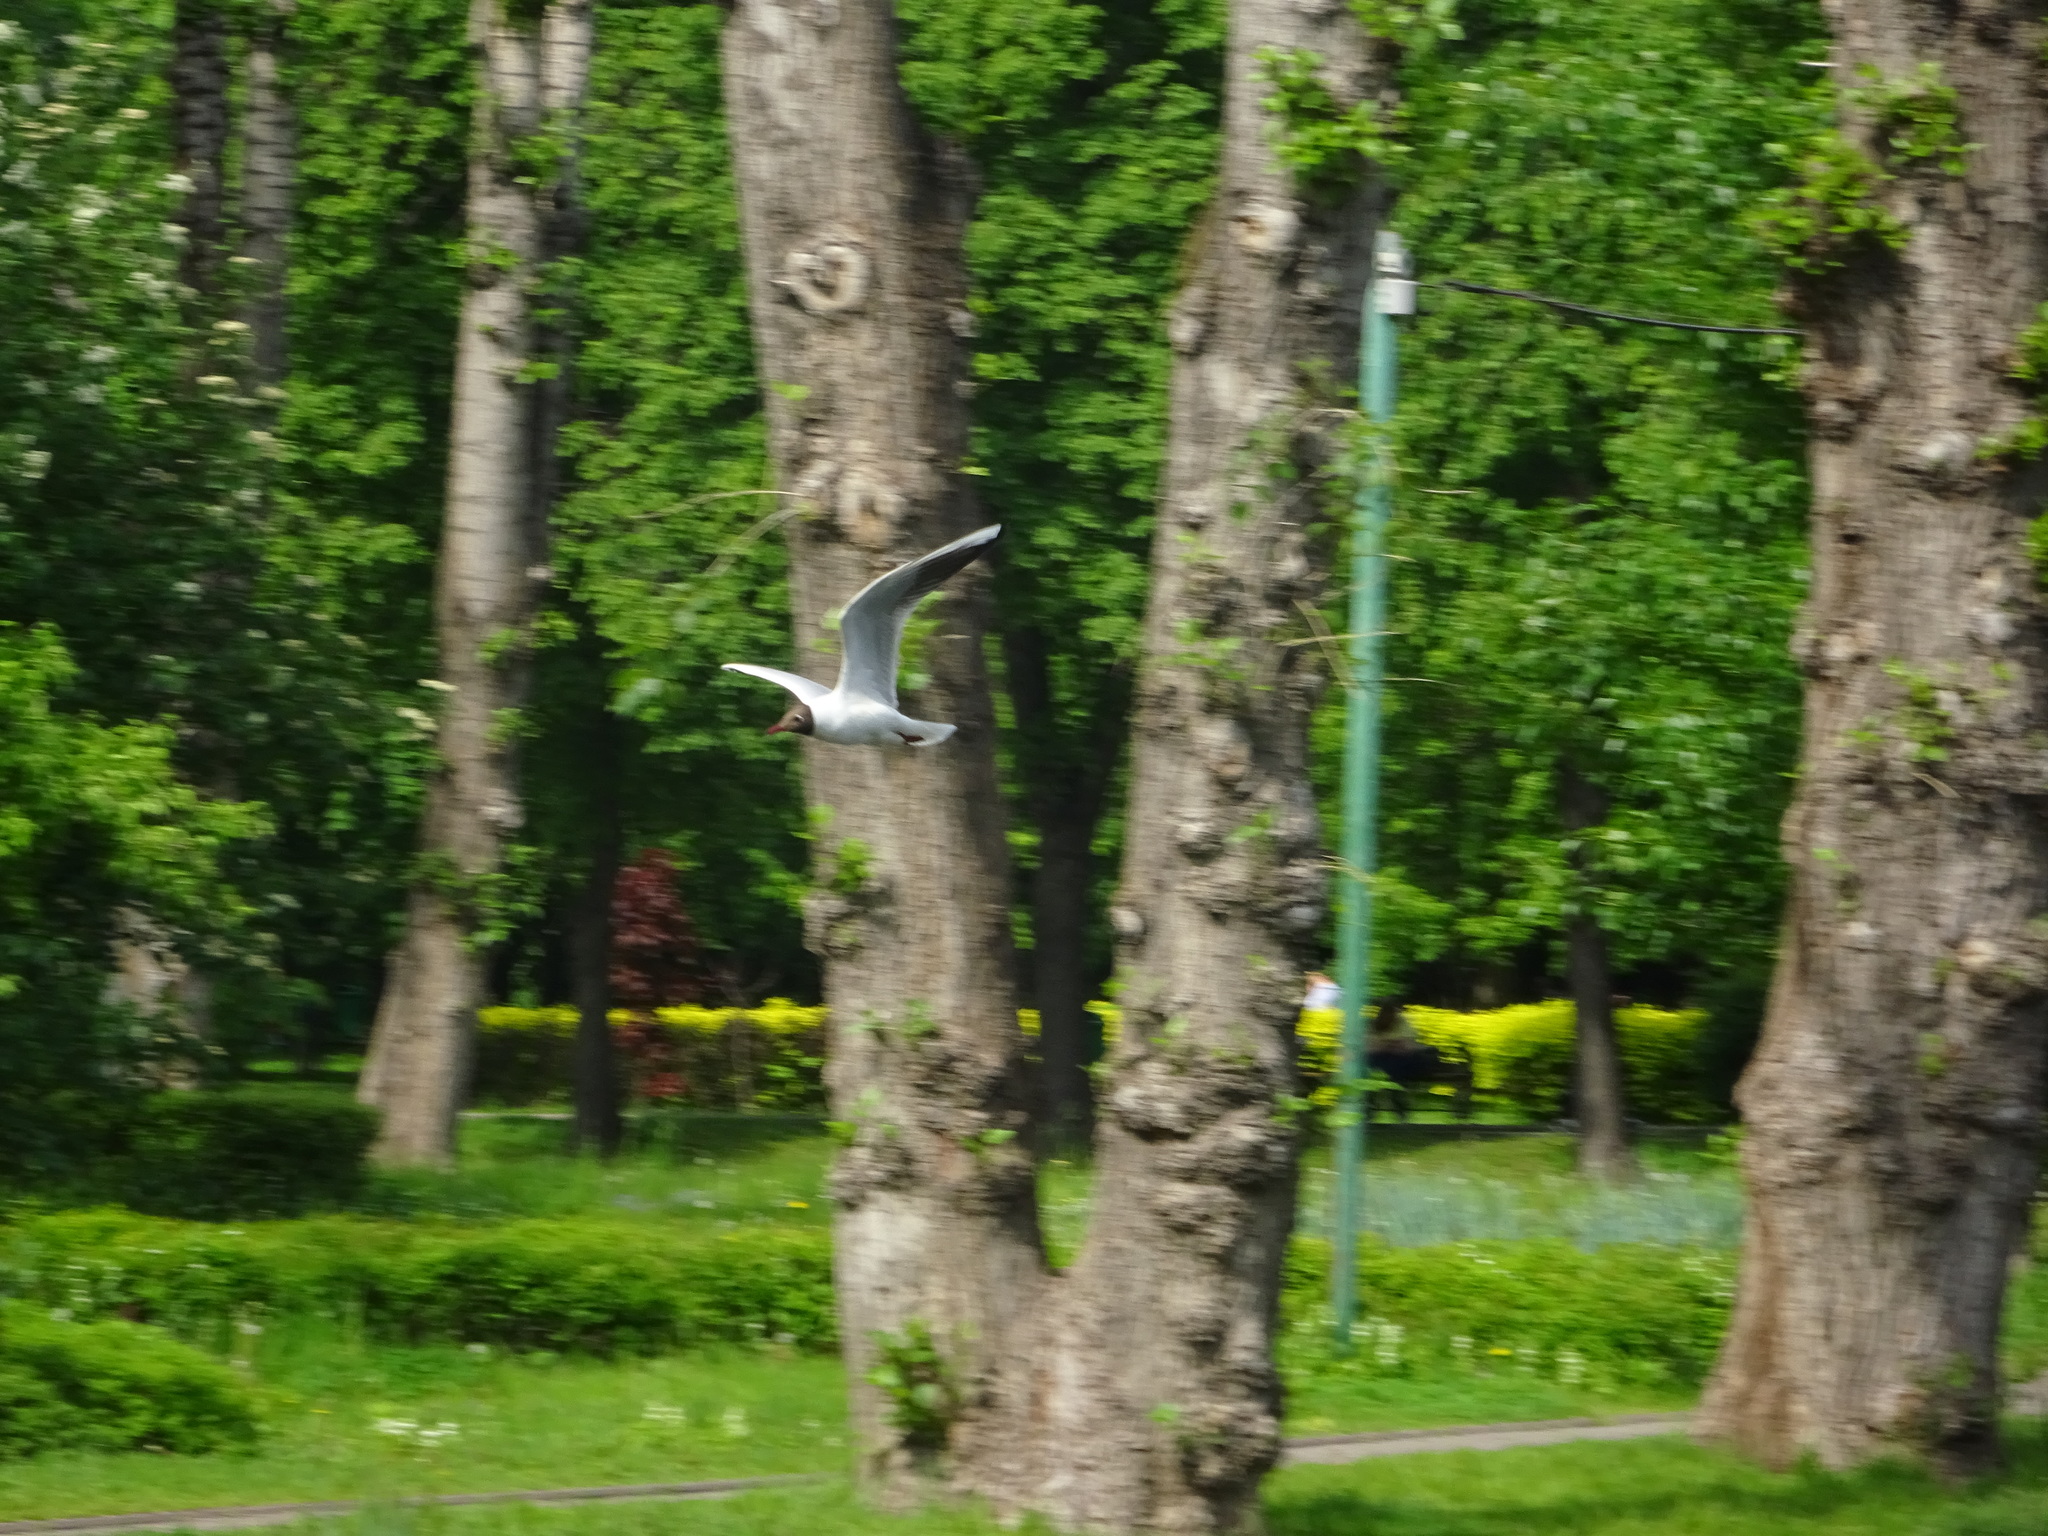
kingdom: Animalia
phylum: Chordata
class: Aves
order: Charadriiformes
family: Laridae
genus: Chroicocephalus
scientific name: Chroicocephalus ridibundus
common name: Black-headed gull
